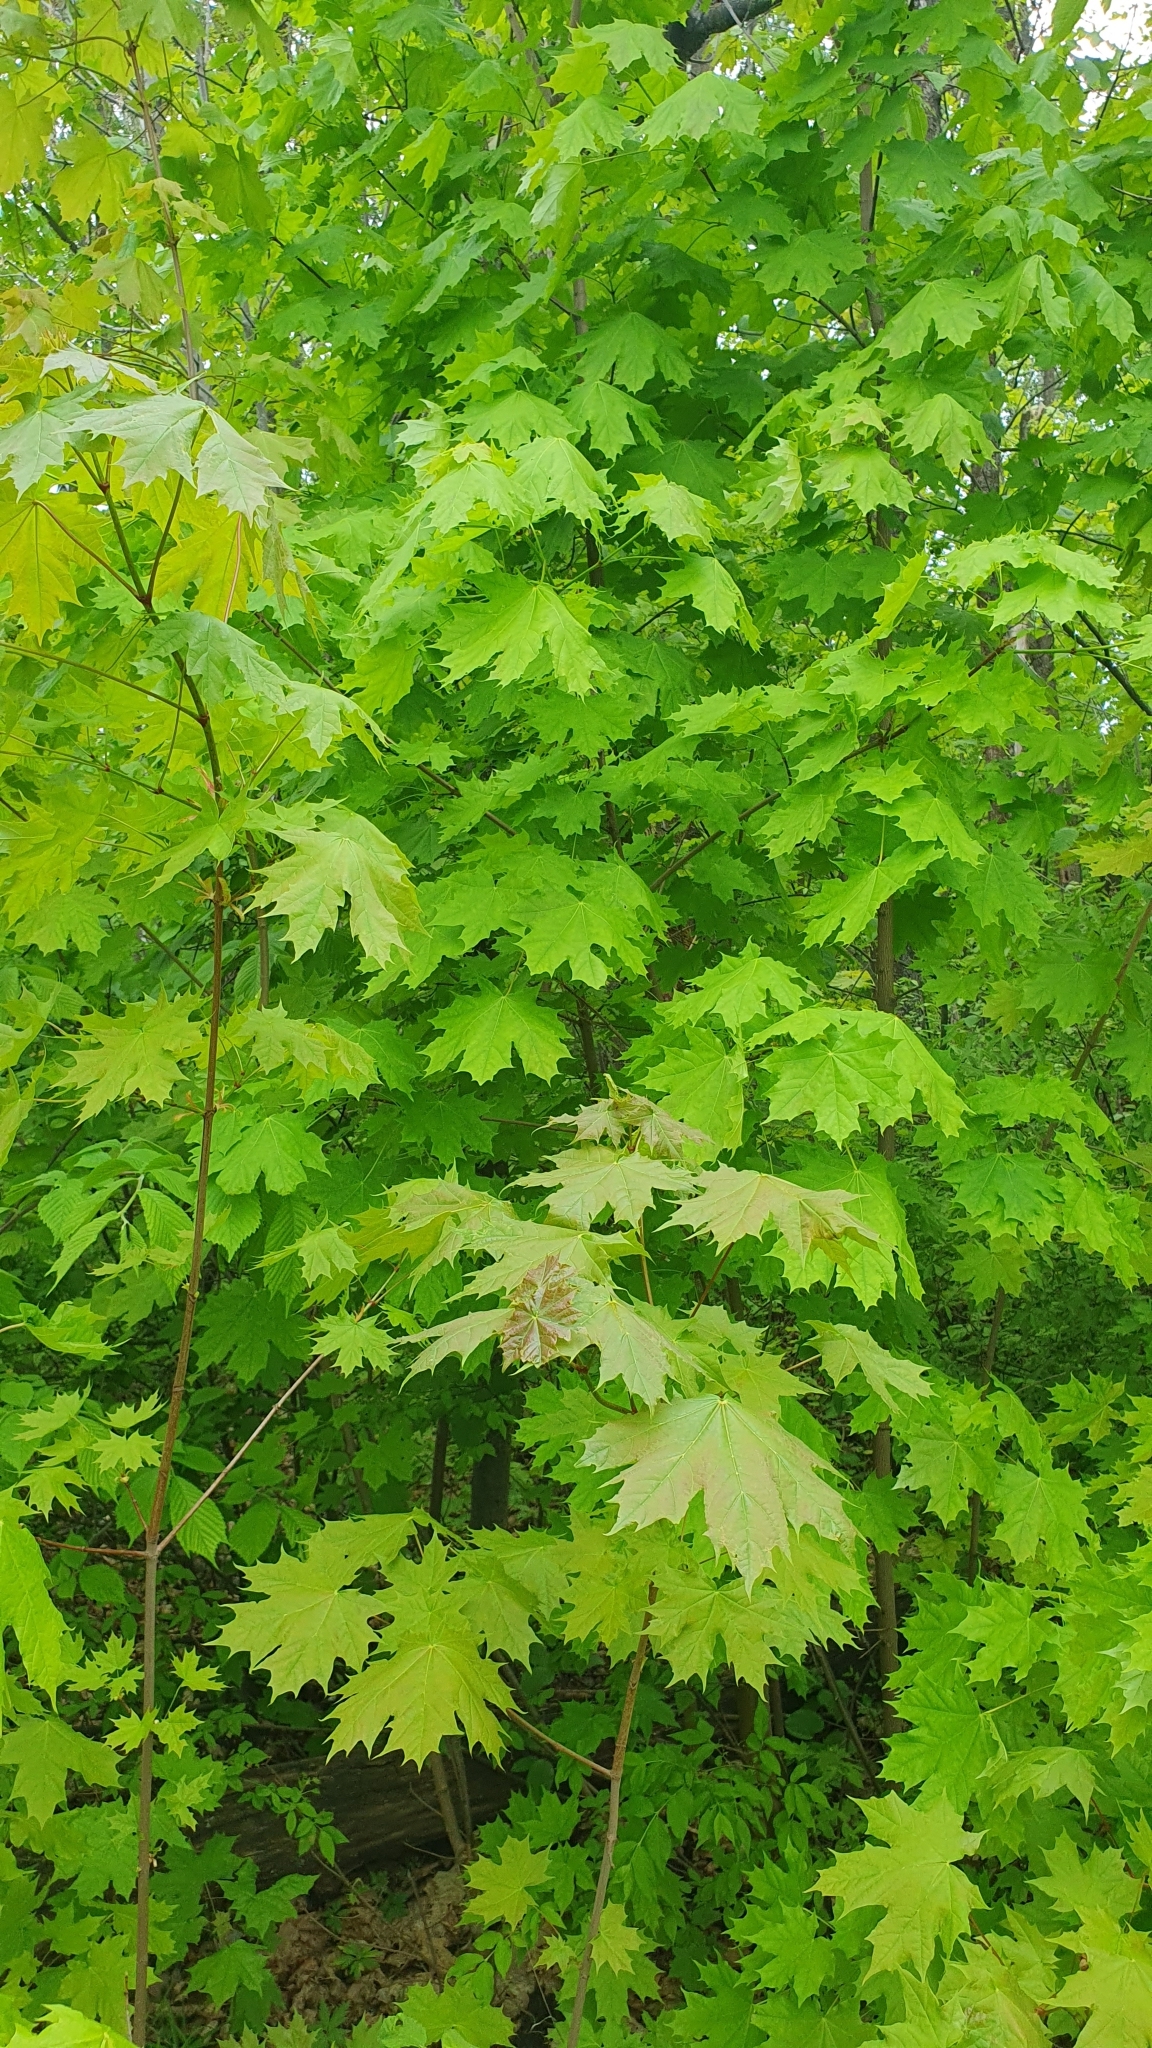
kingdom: Plantae
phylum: Tracheophyta
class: Magnoliopsida
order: Sapindales
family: Sapindaceae
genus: Acer
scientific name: Acer platanoides
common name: Norway maple
